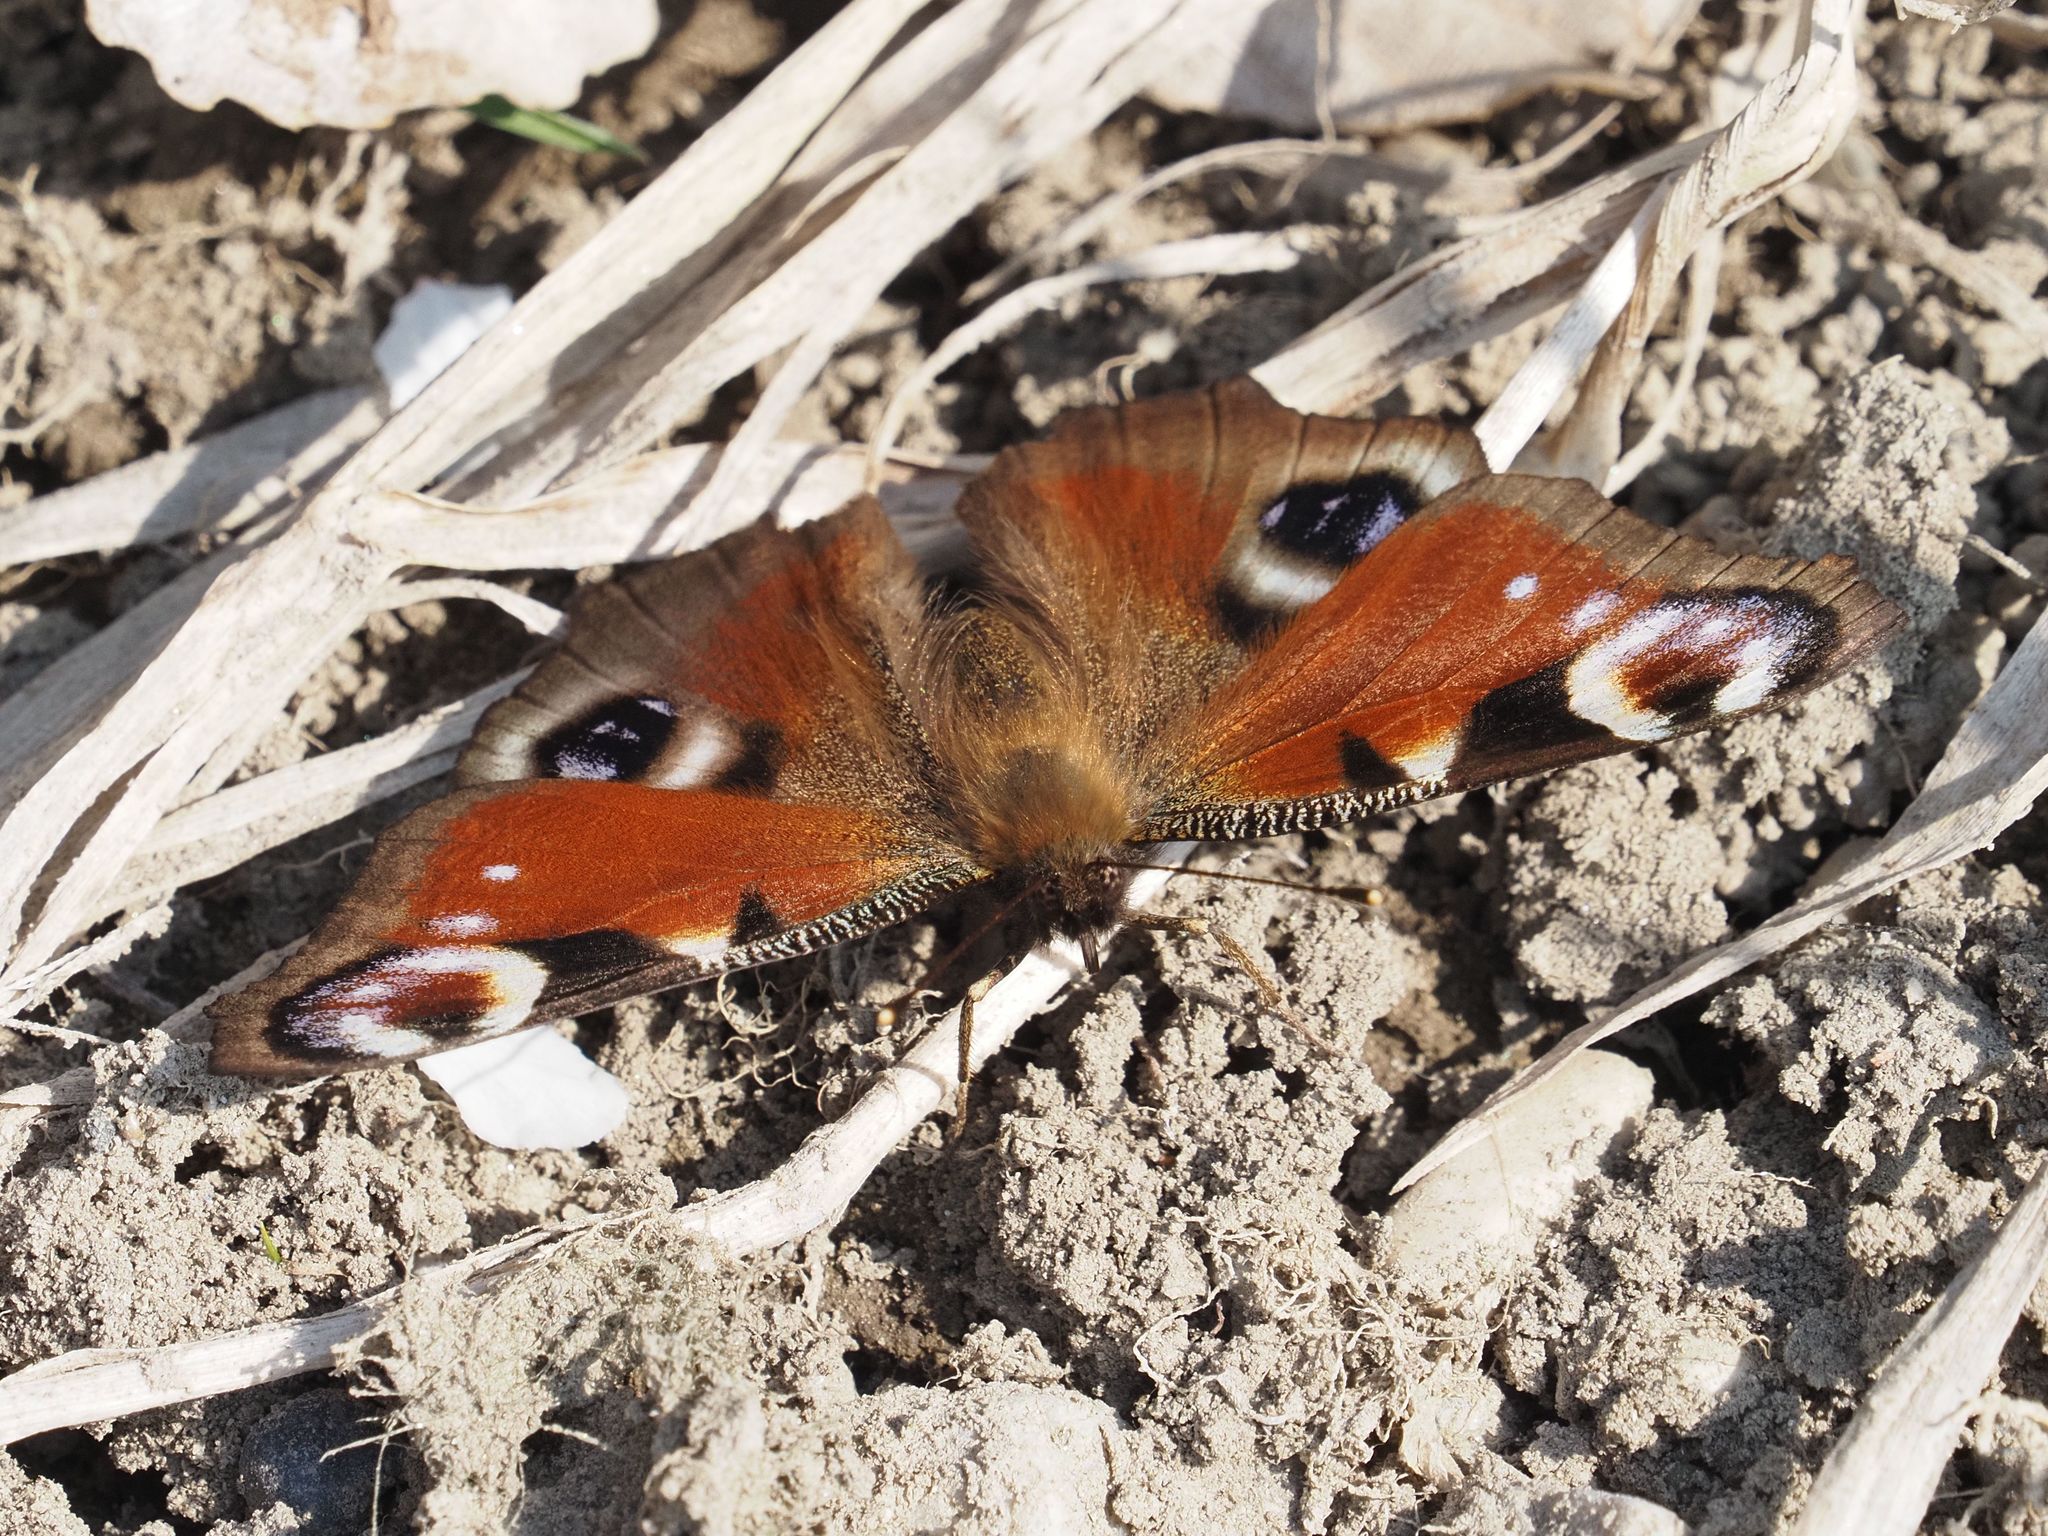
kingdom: Animalia
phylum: Arthropoda
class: Insecta
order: Lepidoptera
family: Nymphalidae
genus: Aglais
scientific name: Aglais io
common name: Peacock
